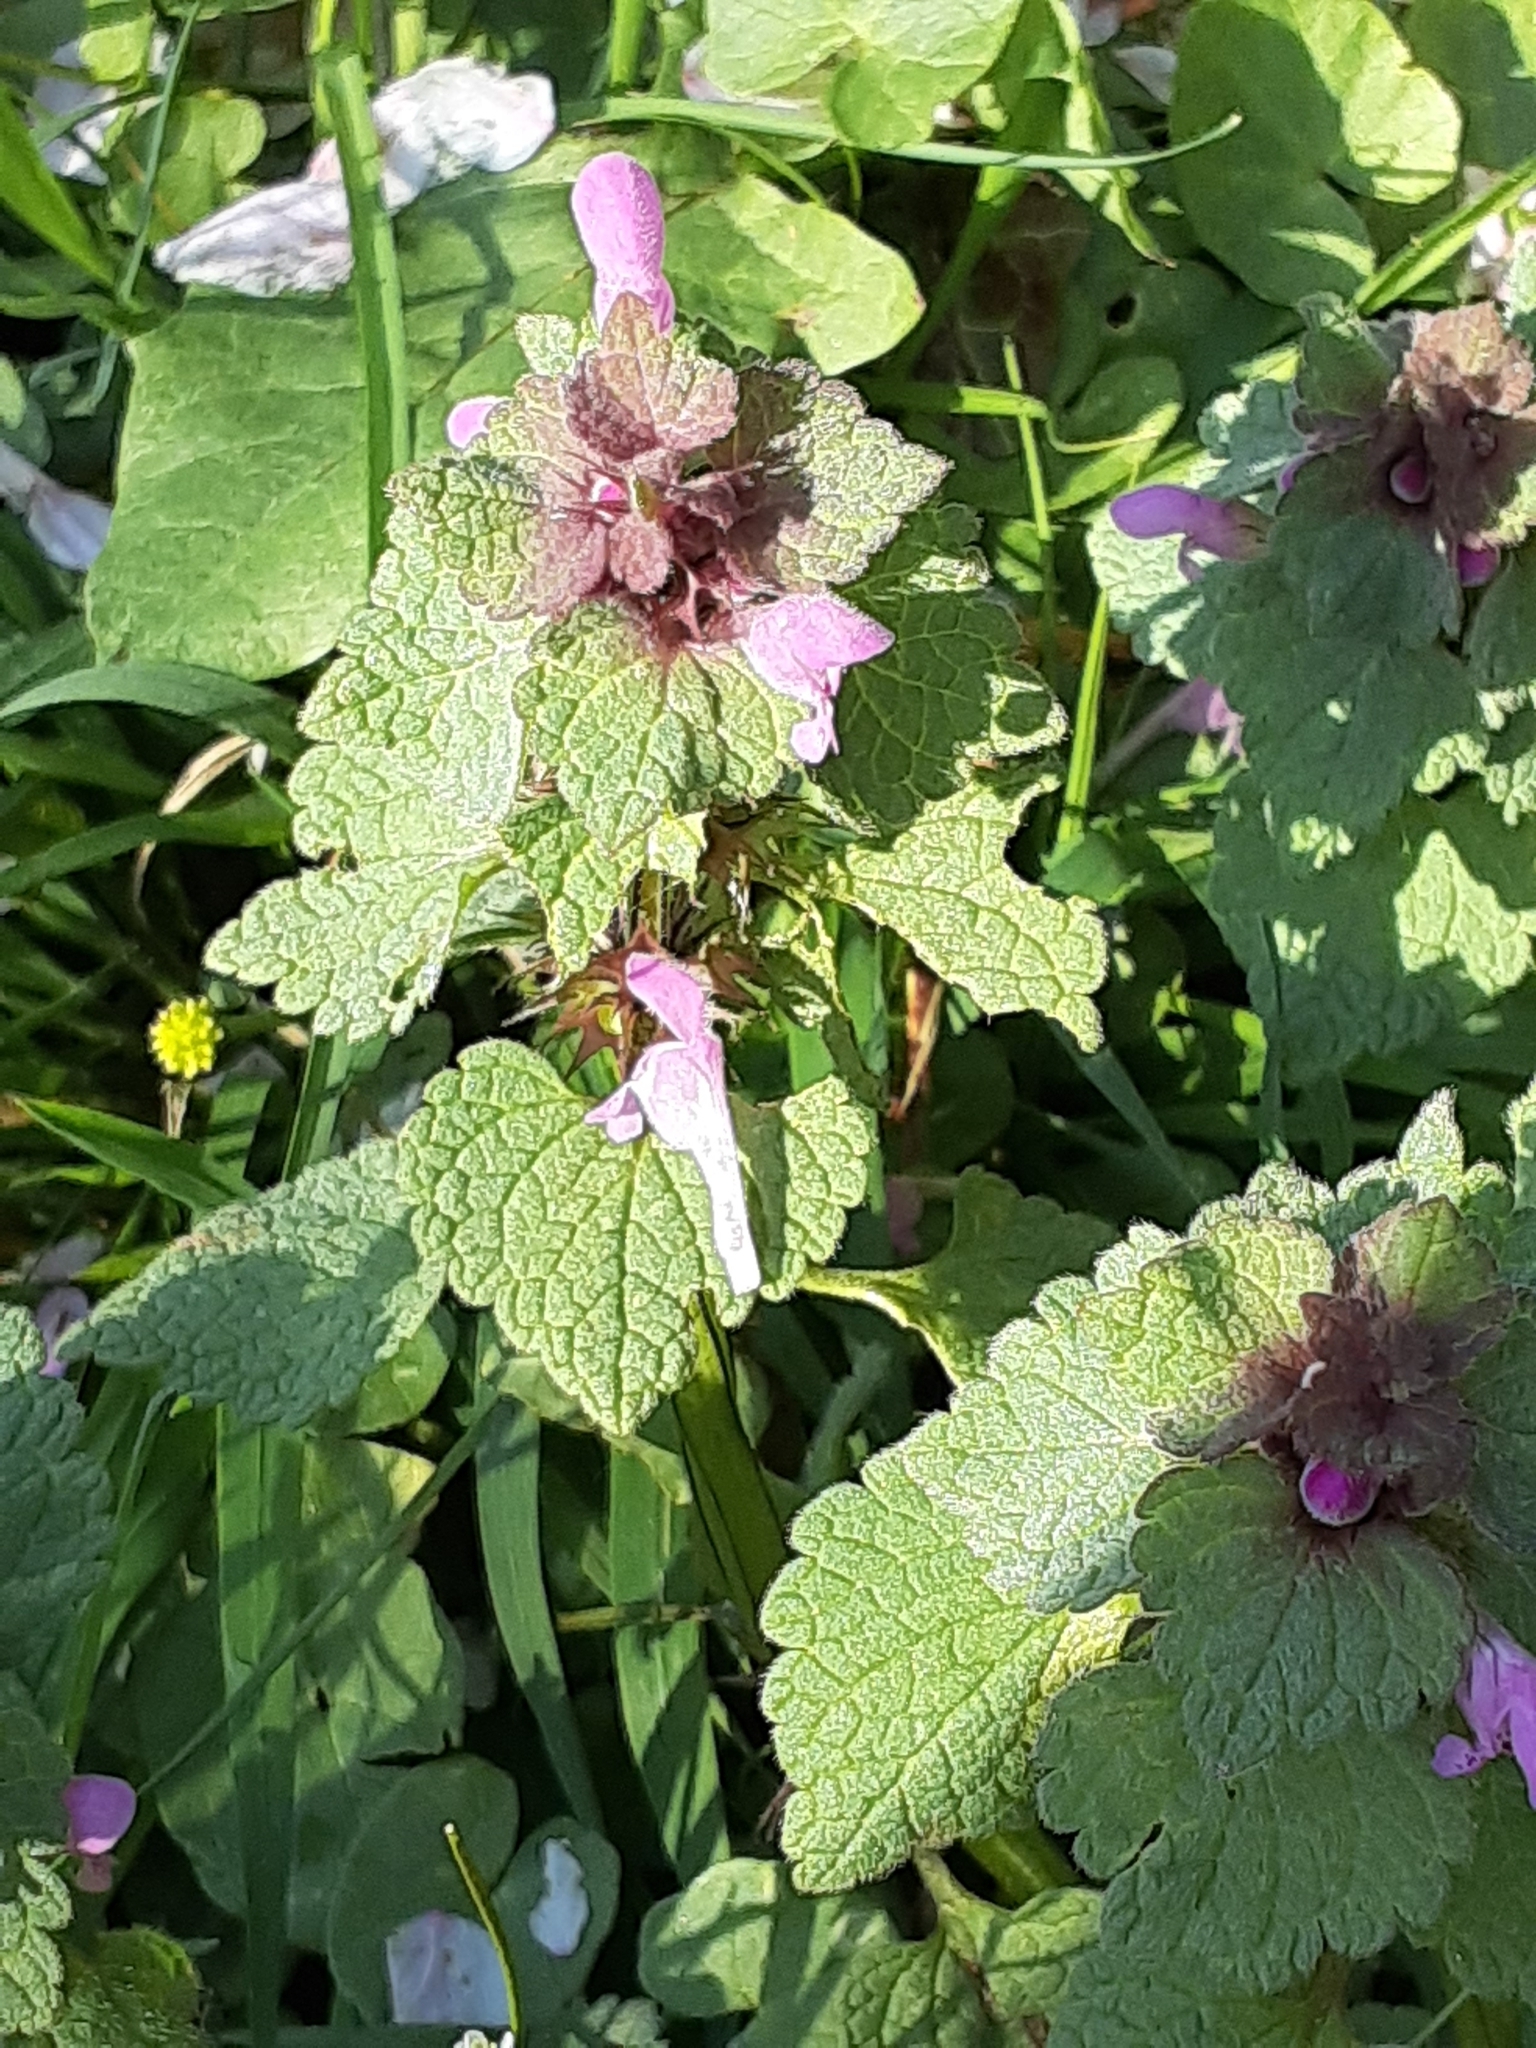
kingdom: Plantae
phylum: Tracheophyta
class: Magnoliopsida
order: Lamiales
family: Lamiaceae
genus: Lamium
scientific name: Lamium purpureum
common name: Red dead-nettle
